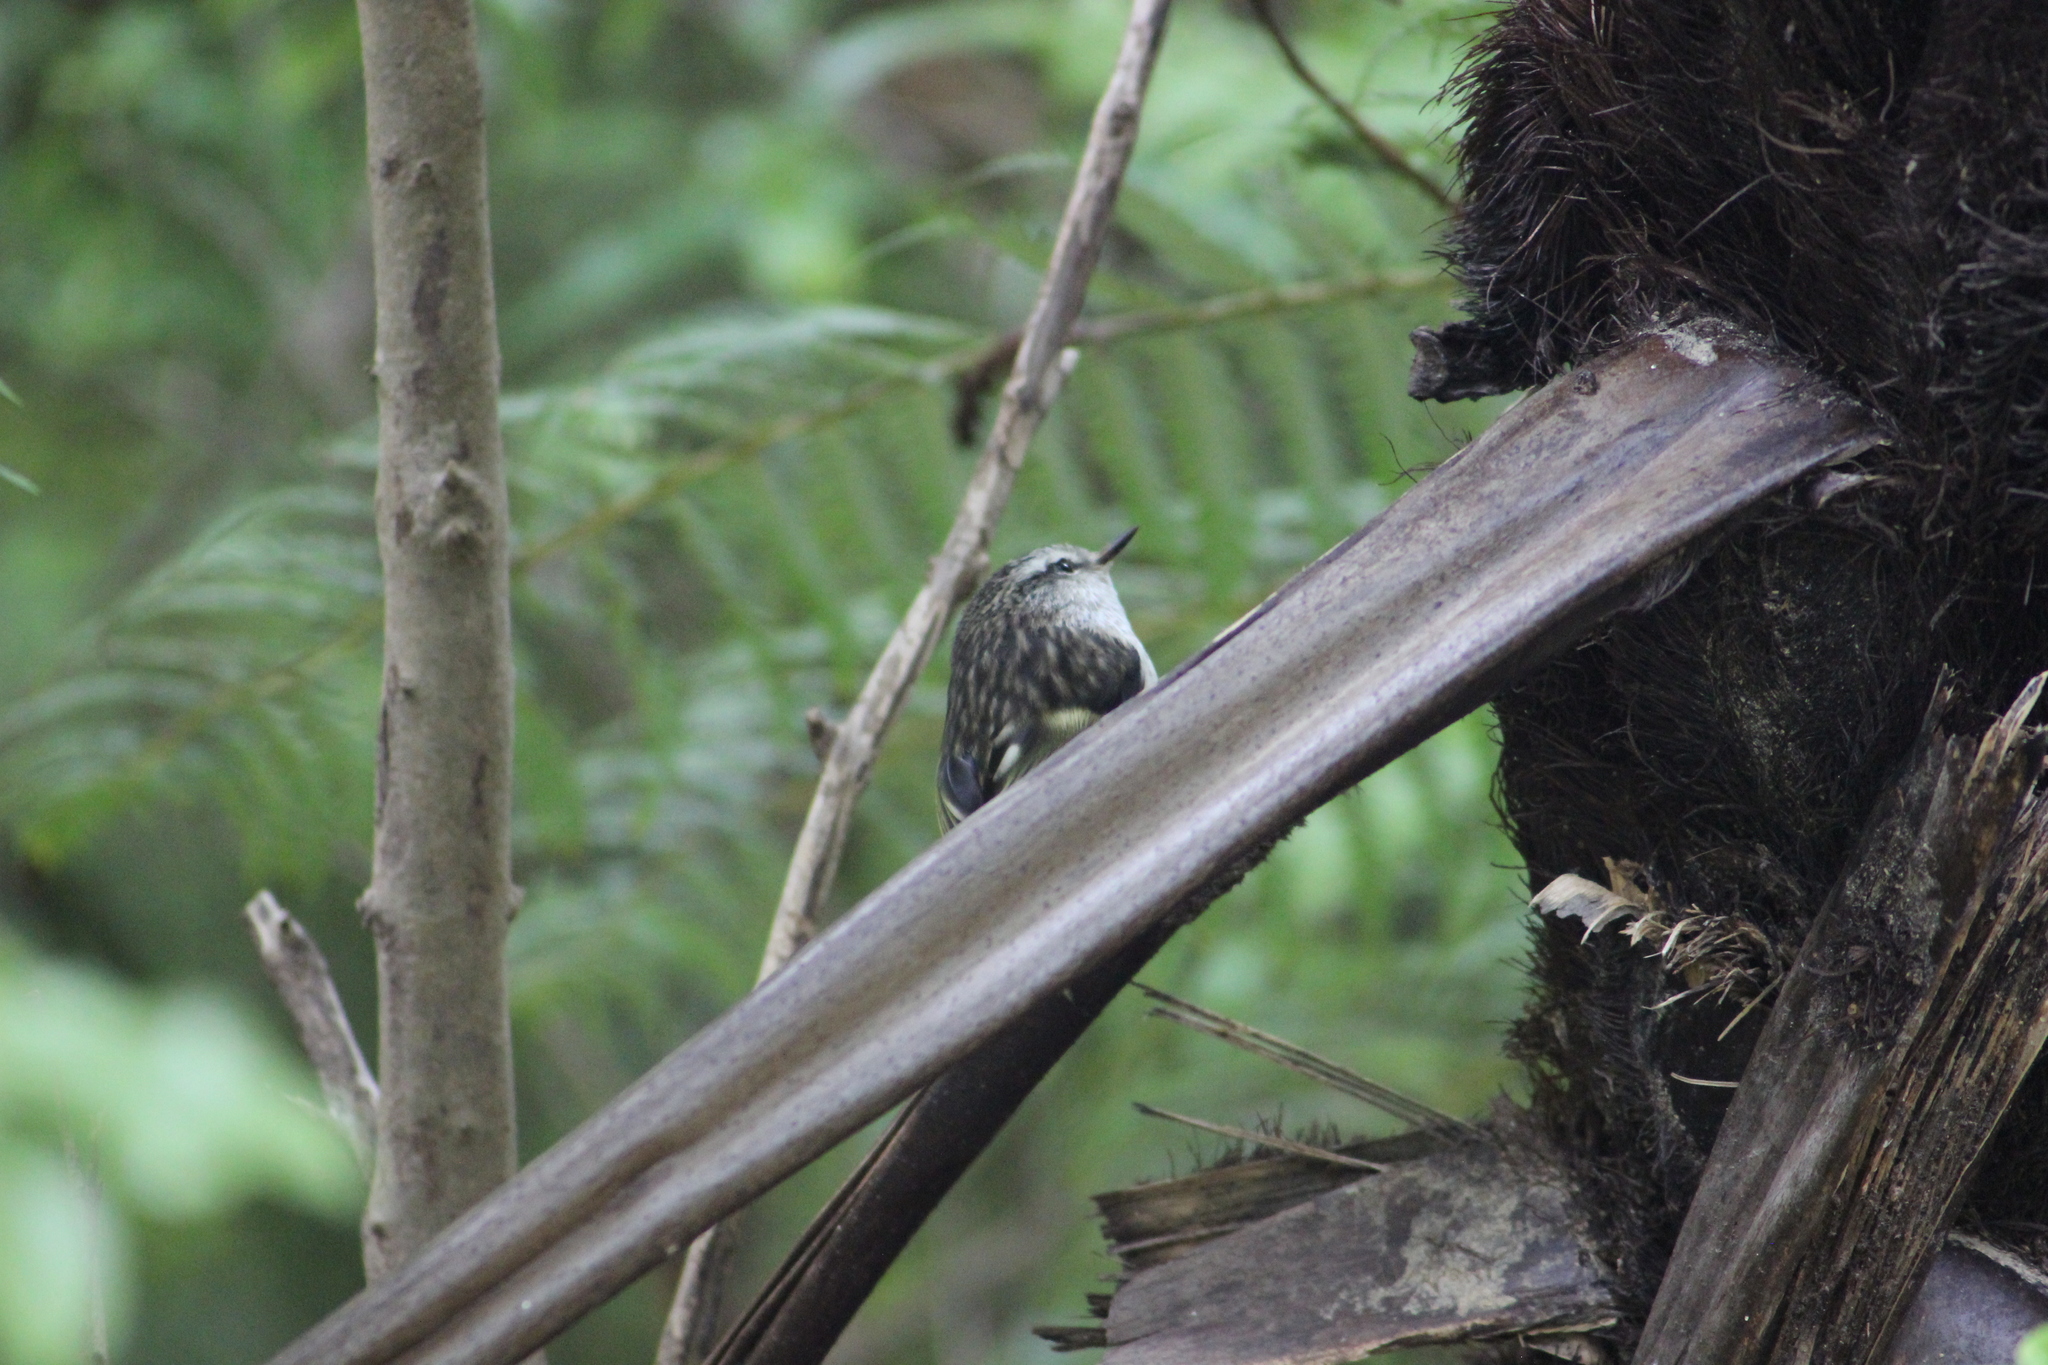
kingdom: Animalia
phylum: Chordata
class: Aves
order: Passeriformes
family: Acanthisittidae
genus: Acanthisitta
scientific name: Acanthisitta chloris
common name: Rifleman
